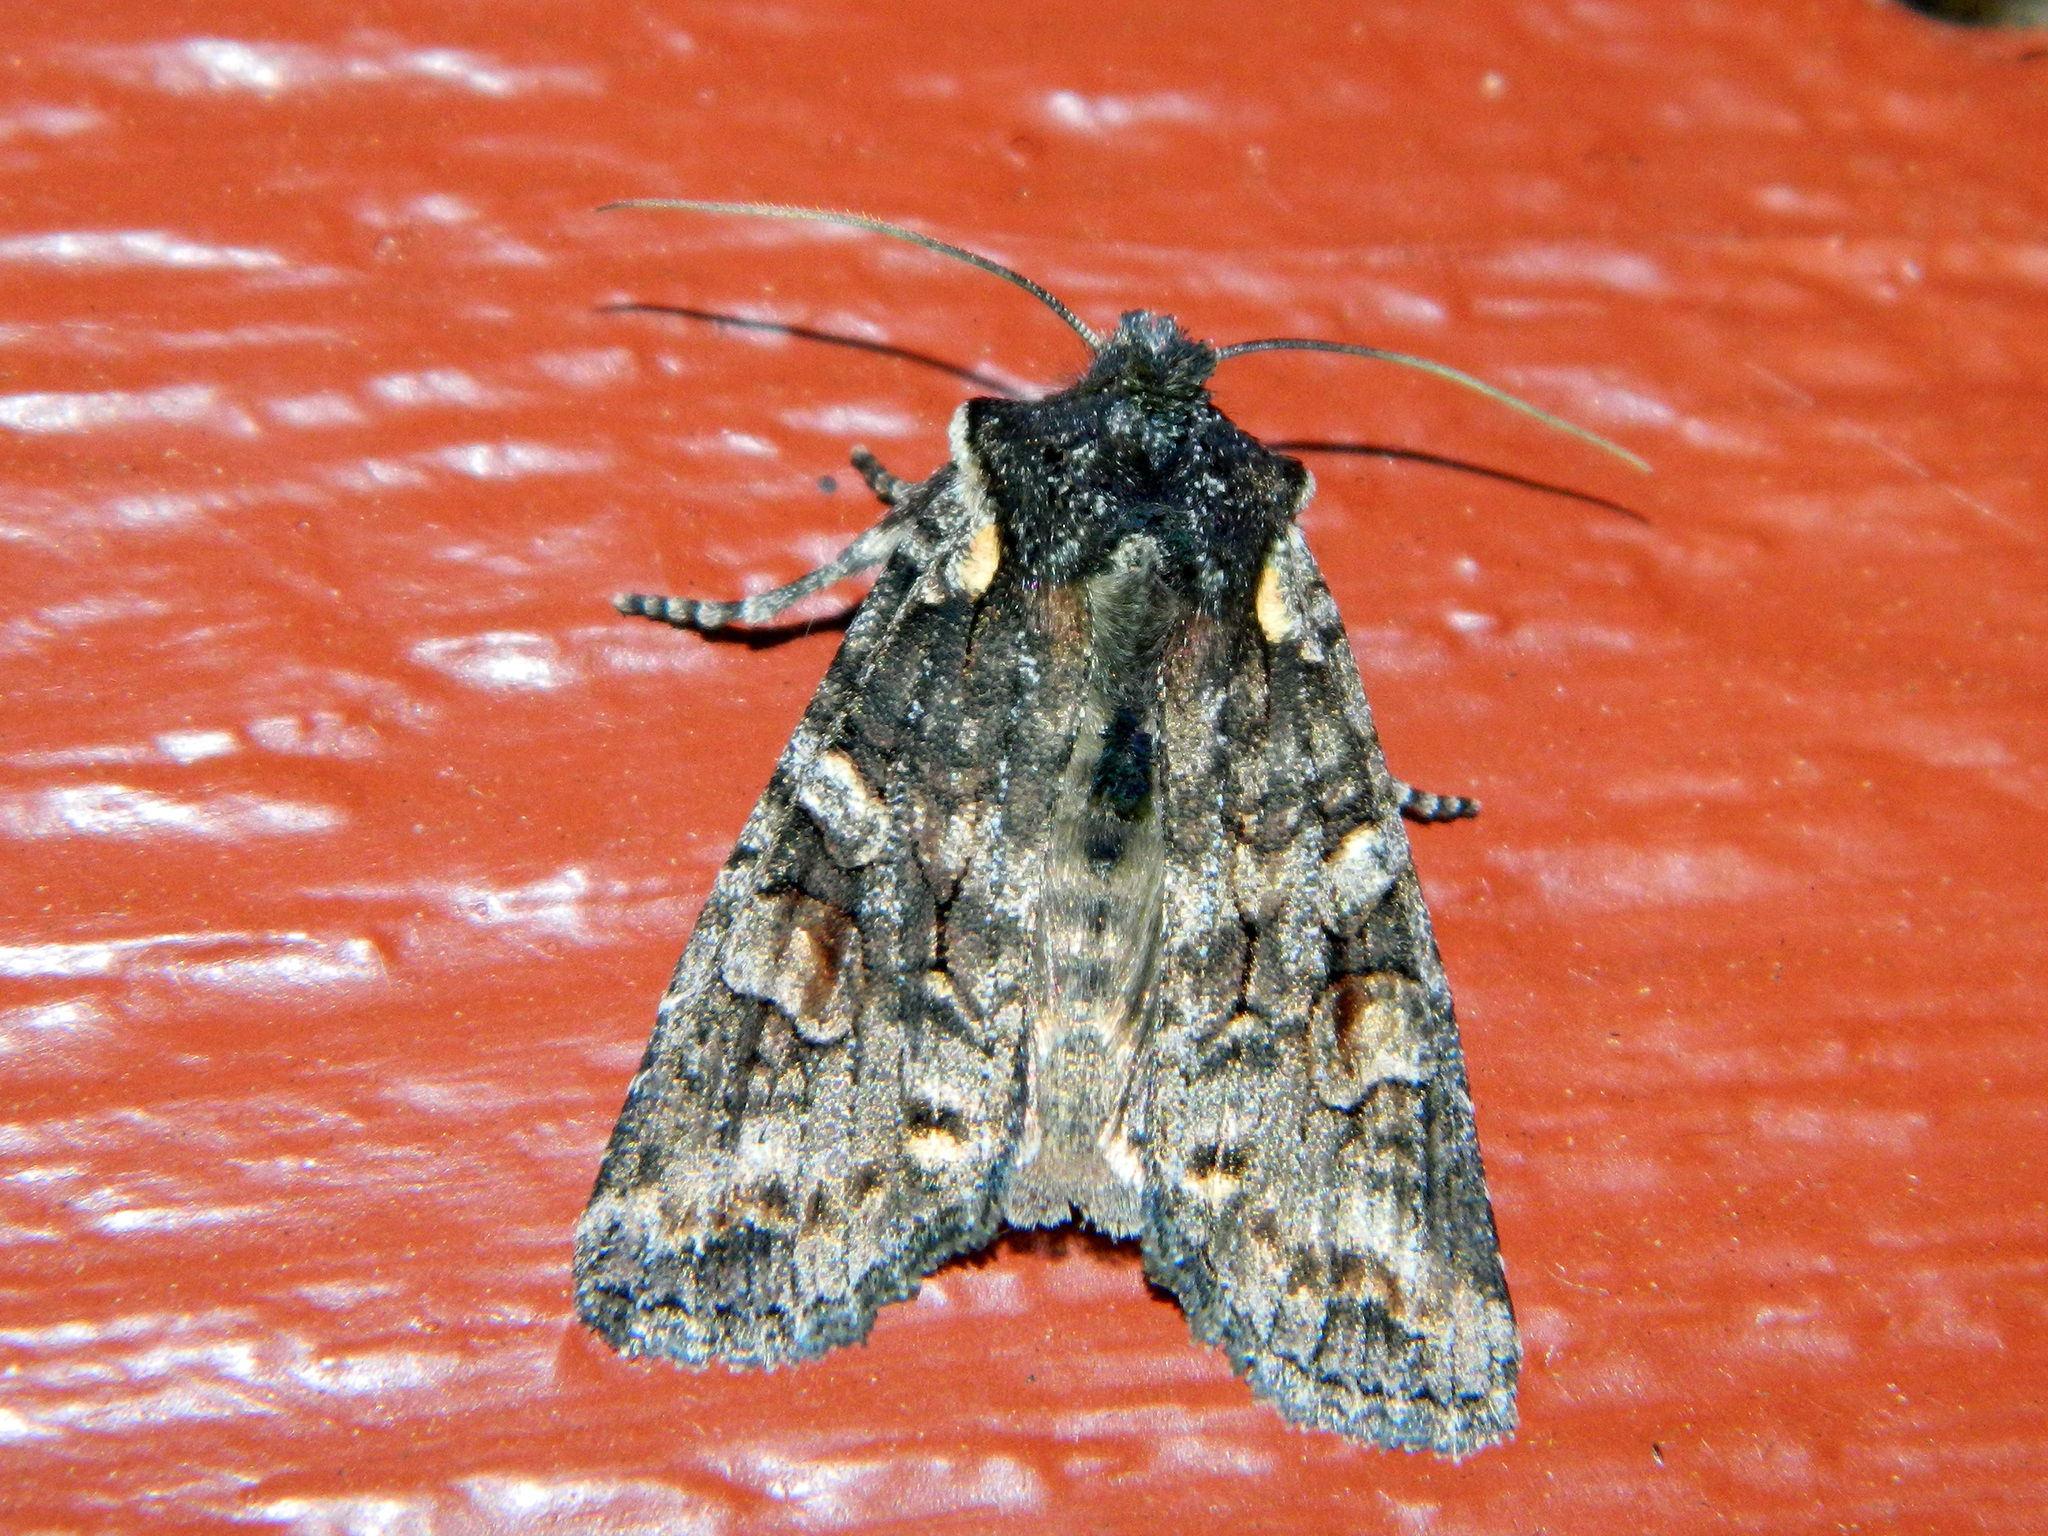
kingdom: Animalia
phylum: Arthropoda
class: Insecta
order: Lepidoptera
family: Noctuidae
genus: Lithophane
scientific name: Lithophane pexata
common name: Plush-naped pinion moth
